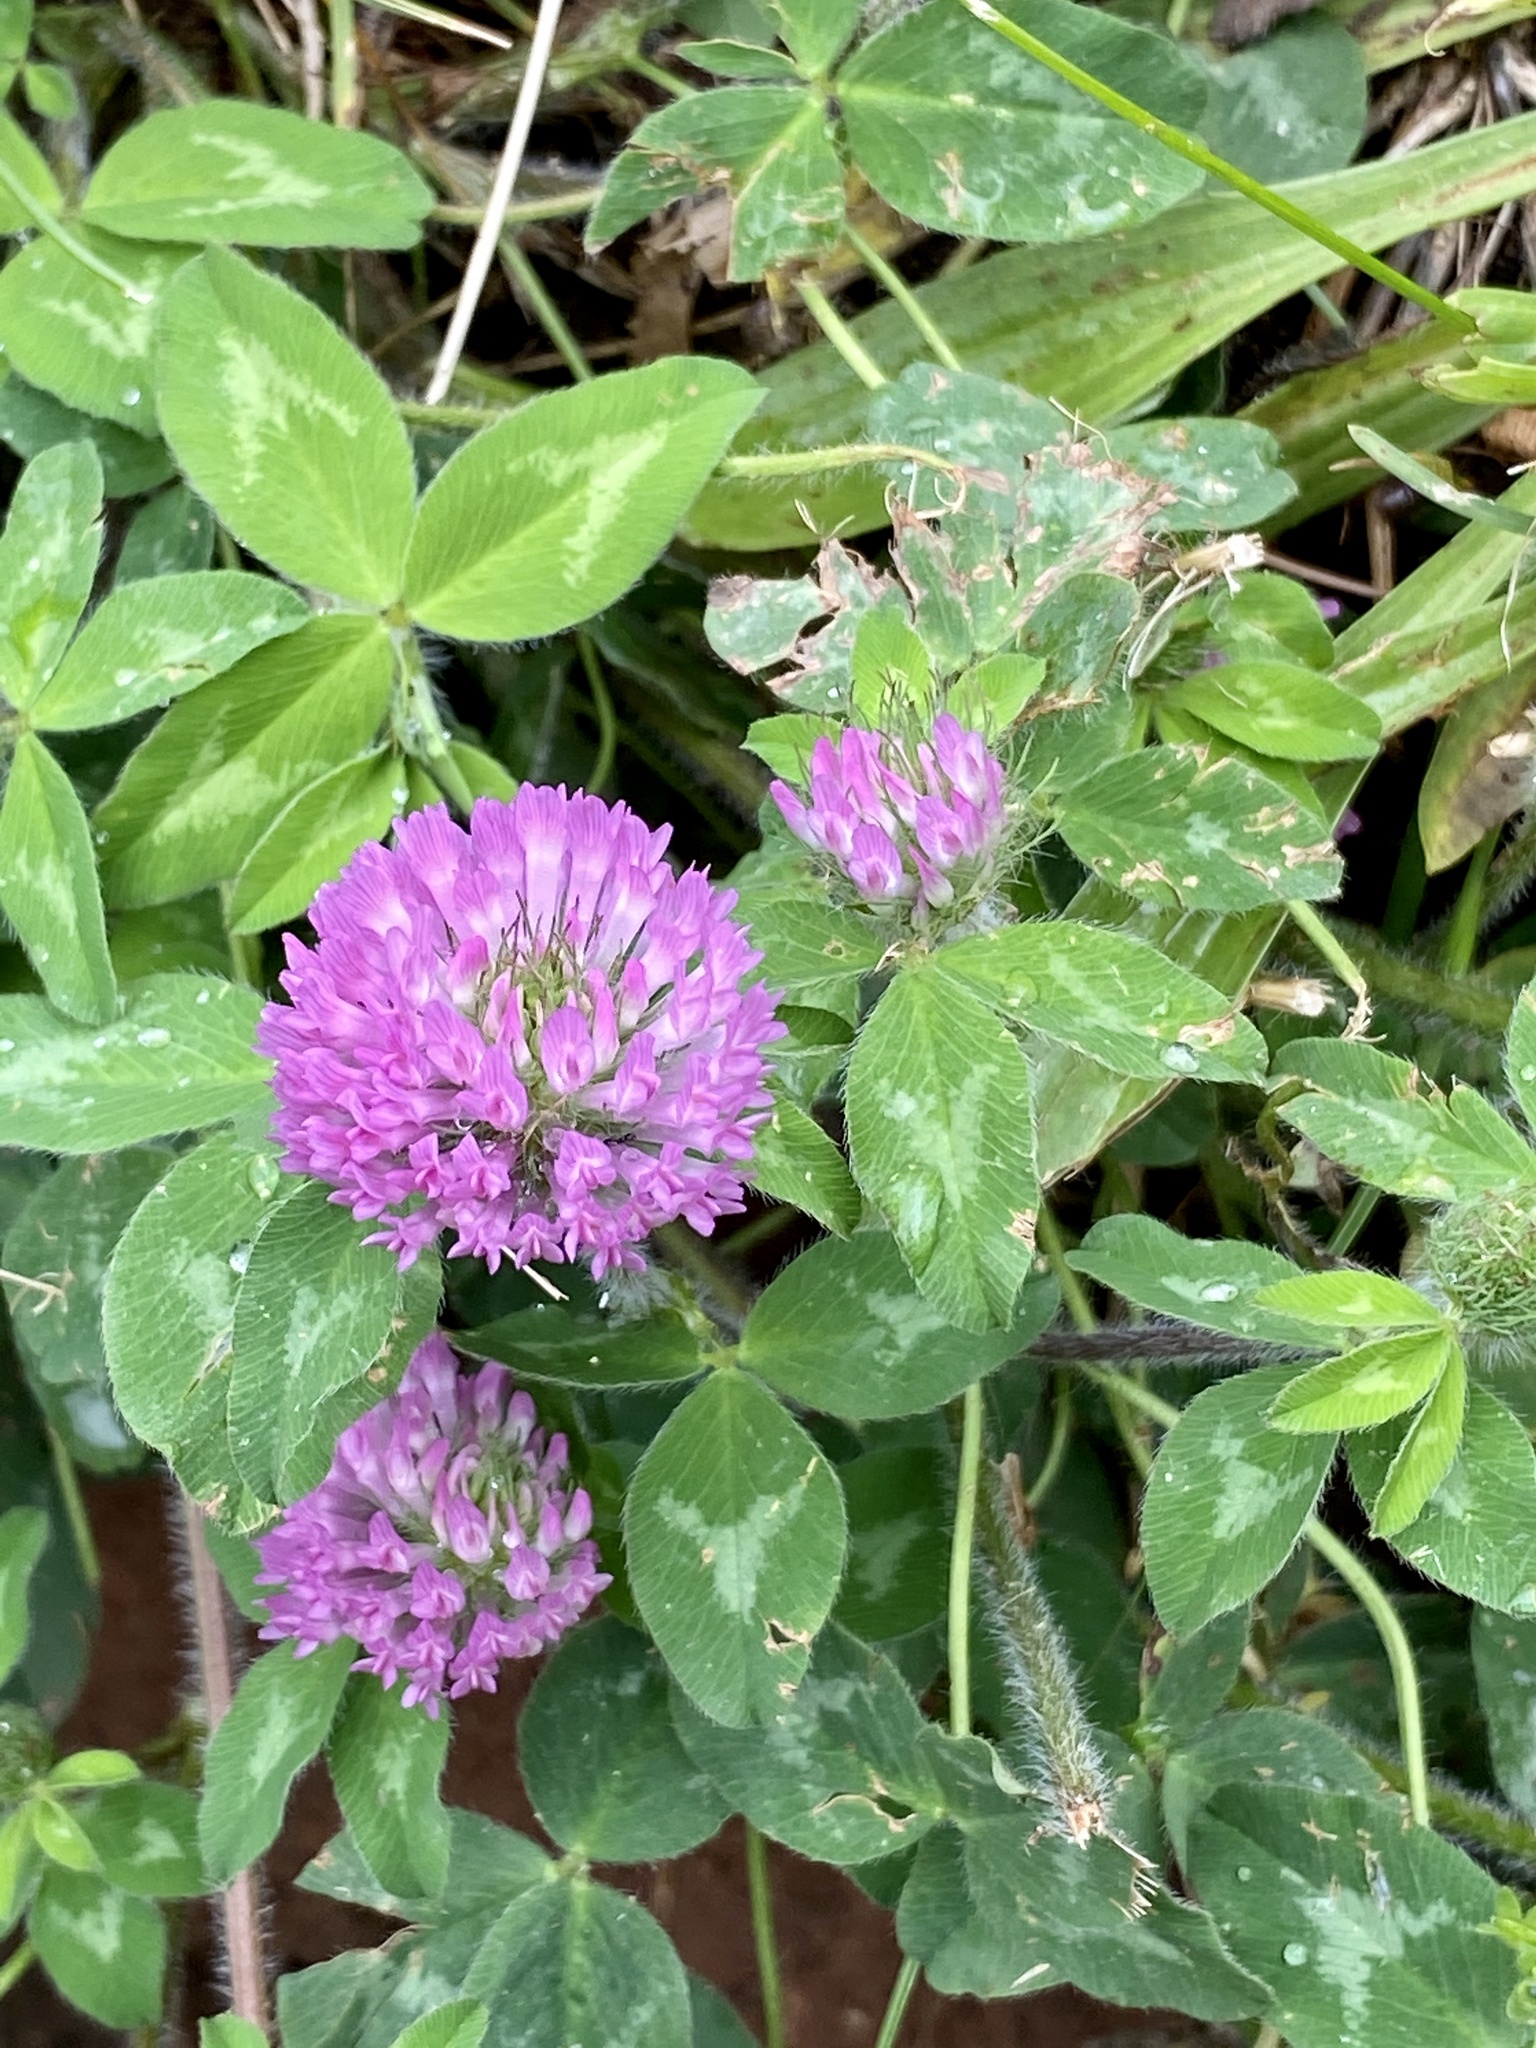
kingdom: Plantae
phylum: Tracheophyta
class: Magnoliopsida
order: Fabales
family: Fabaceae
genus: Trifolium
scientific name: Trifolium pratense
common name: Red clover
